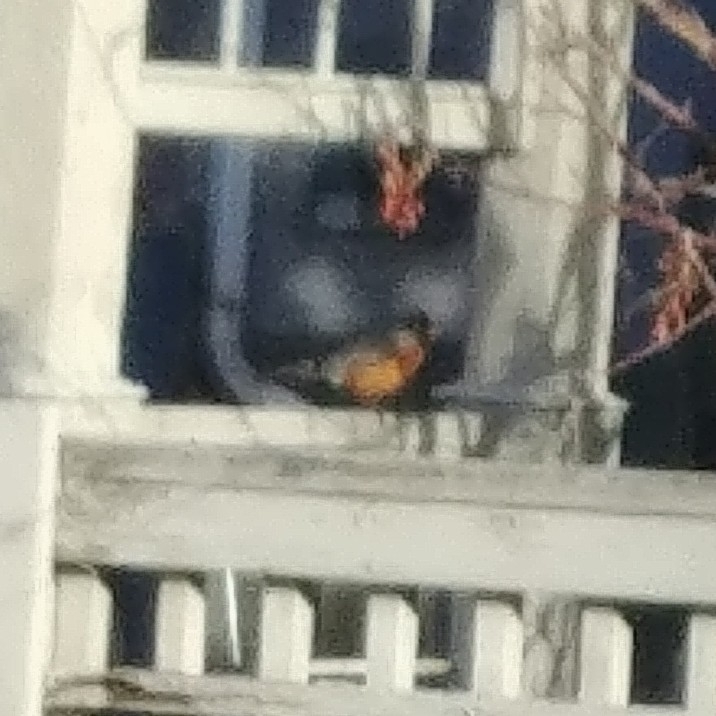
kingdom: Animalia
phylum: Chordata
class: Aves
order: Passeriformes
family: Turdidae
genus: Turdus
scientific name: Turdus migratorius
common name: American robin
